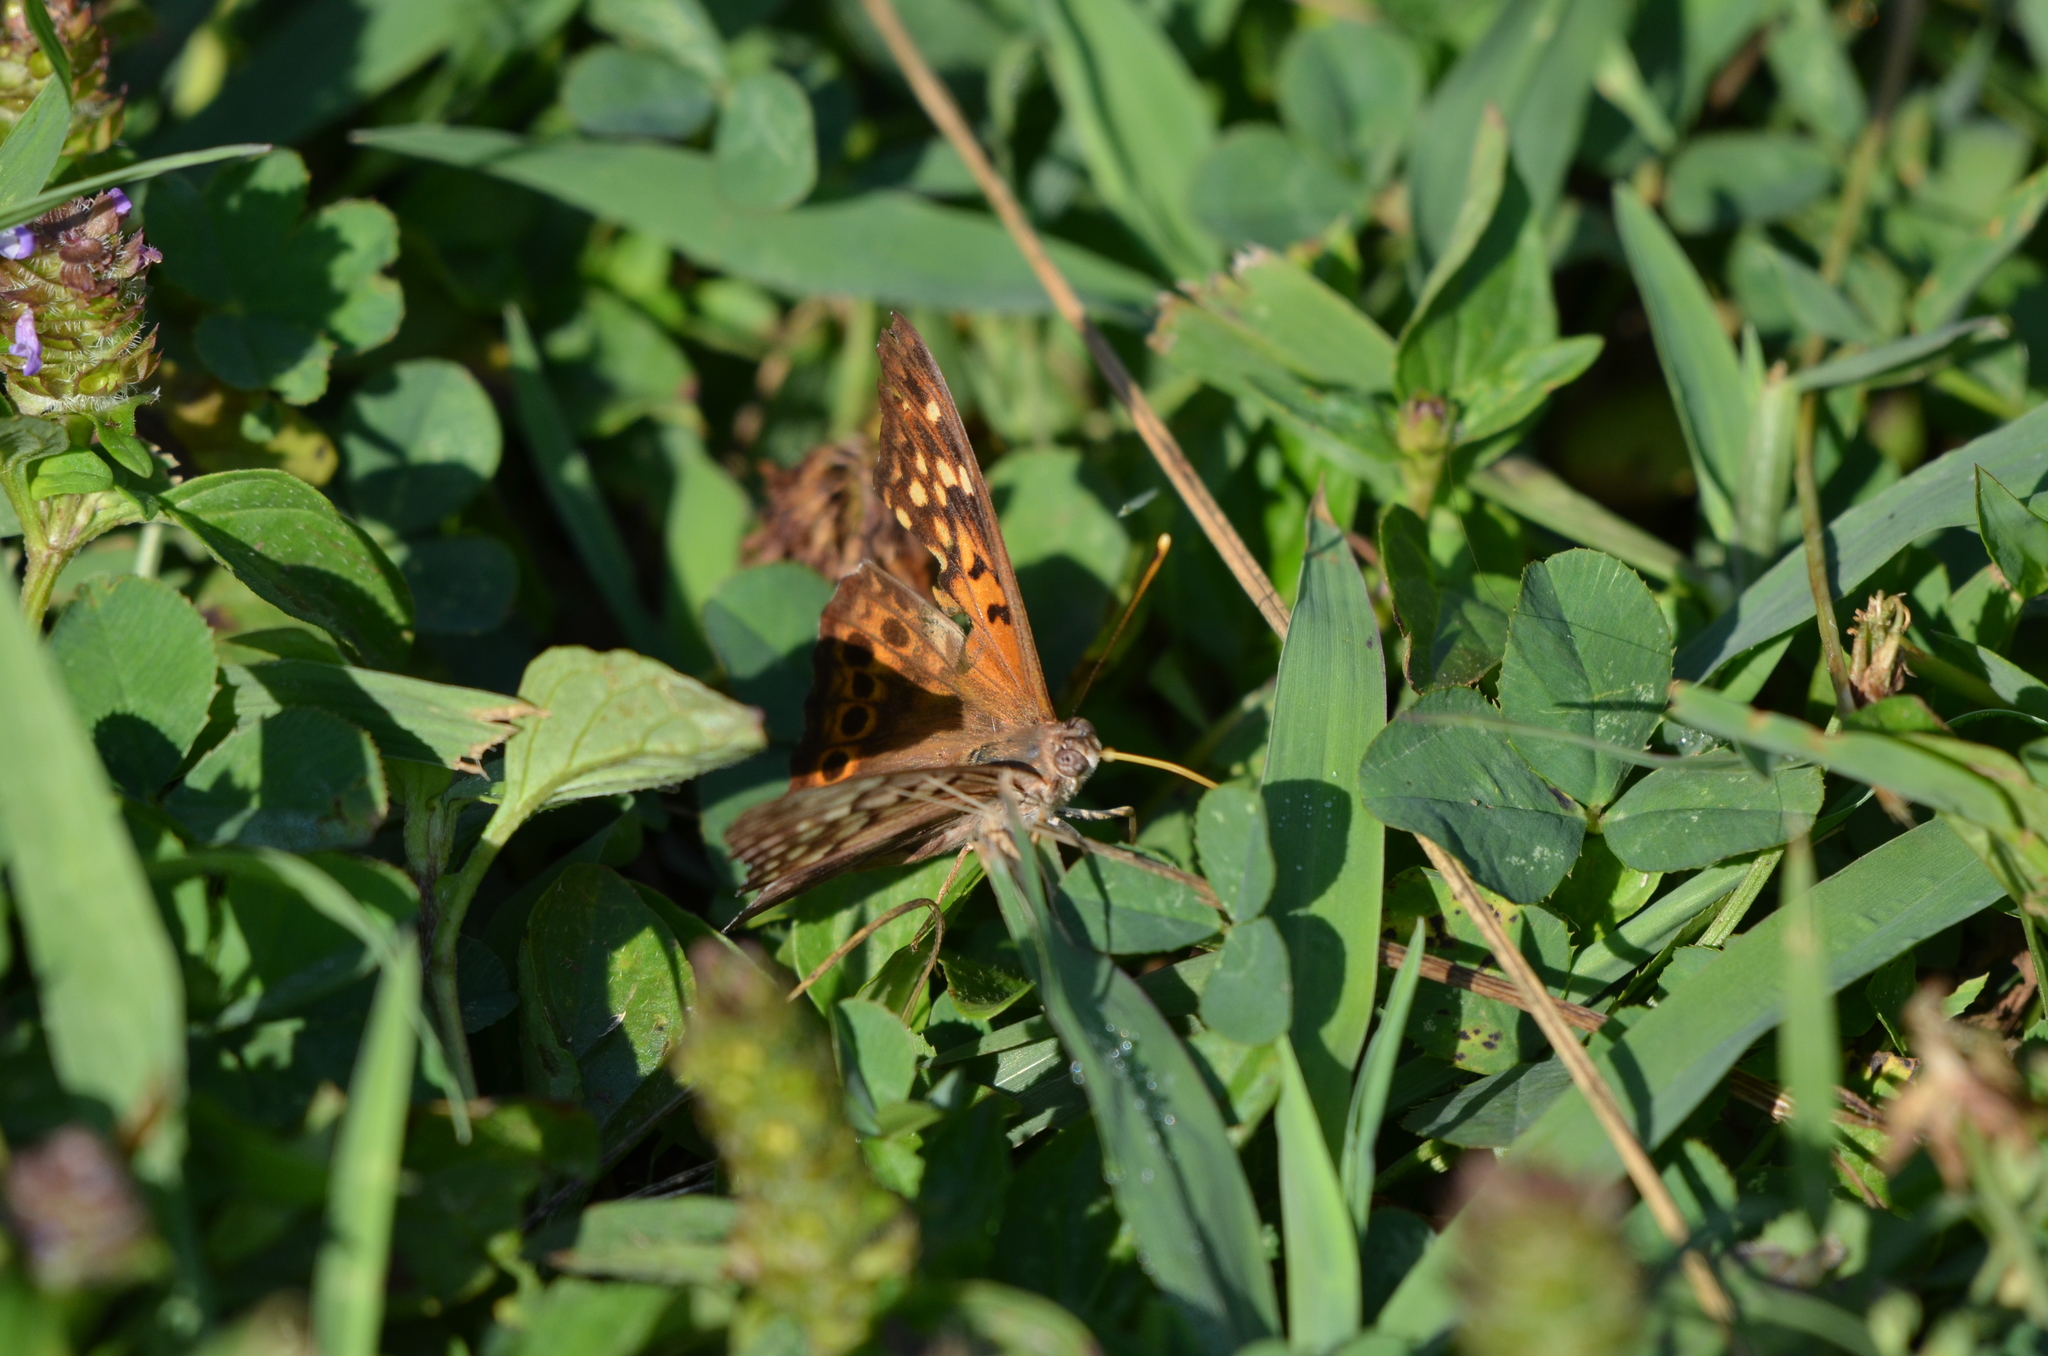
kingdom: Animalia
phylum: Arthropoda
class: Insecta
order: Lepidoptera
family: Nymphalidae
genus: Asterocampa
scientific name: Asterocampa clyton
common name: Tawny emperor
